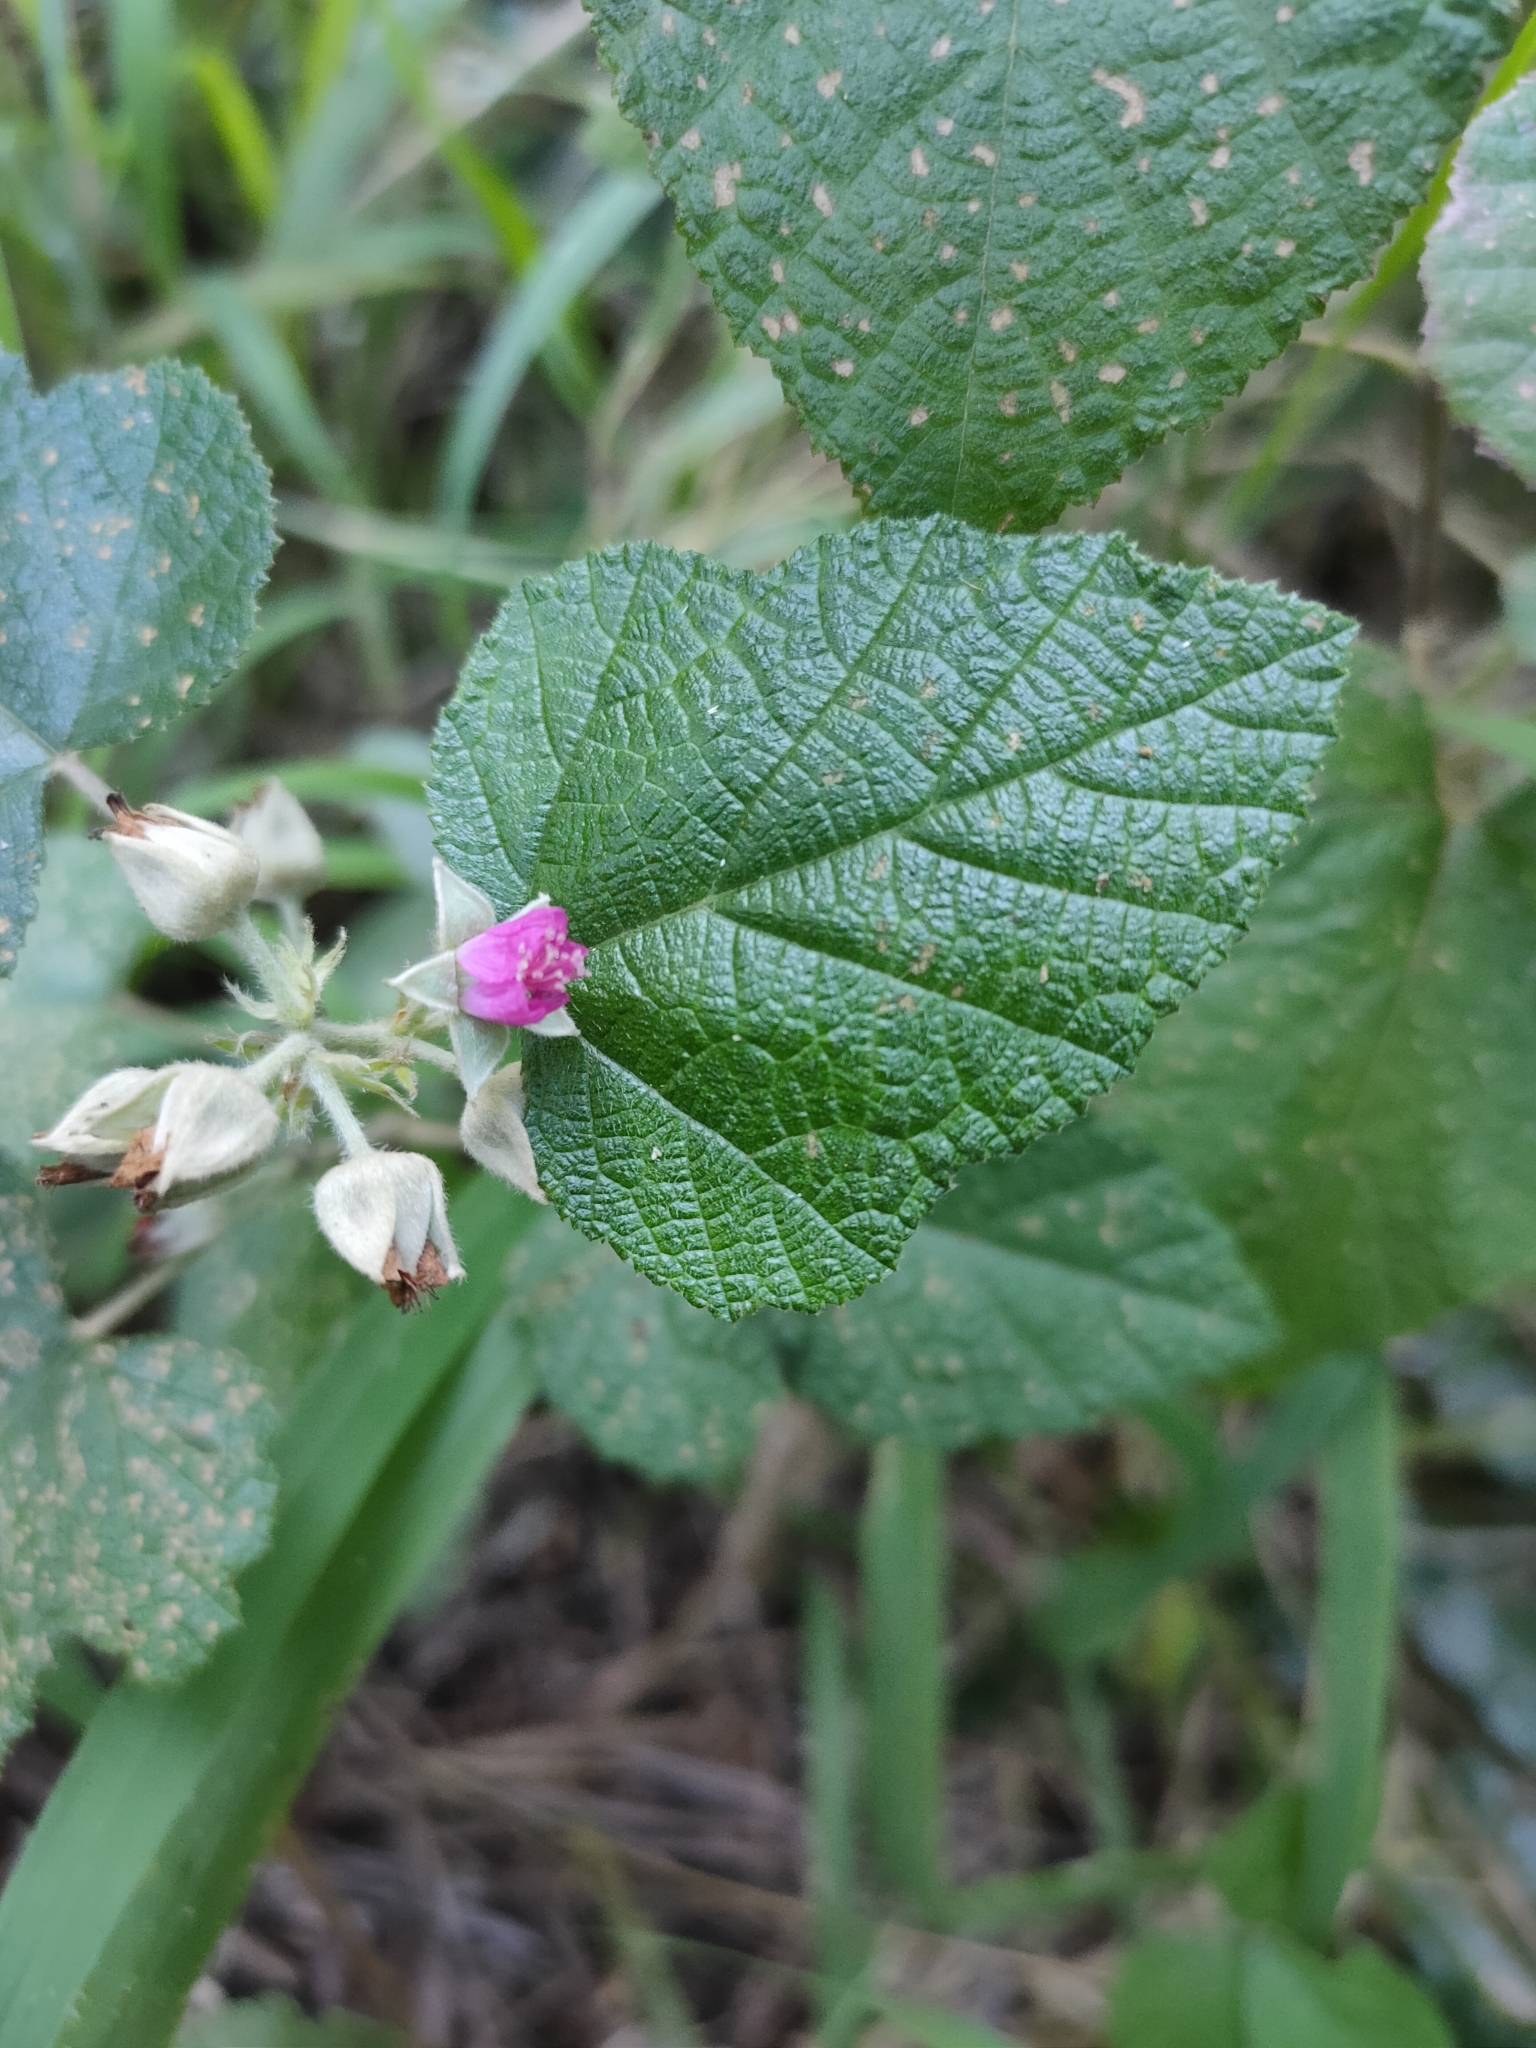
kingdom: Plantae
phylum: Tracheophyta
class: Magnoliopsida
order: Rosales
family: Rosaceae
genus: Rubus
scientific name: Rubus moluccanus
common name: Wild raspberry
